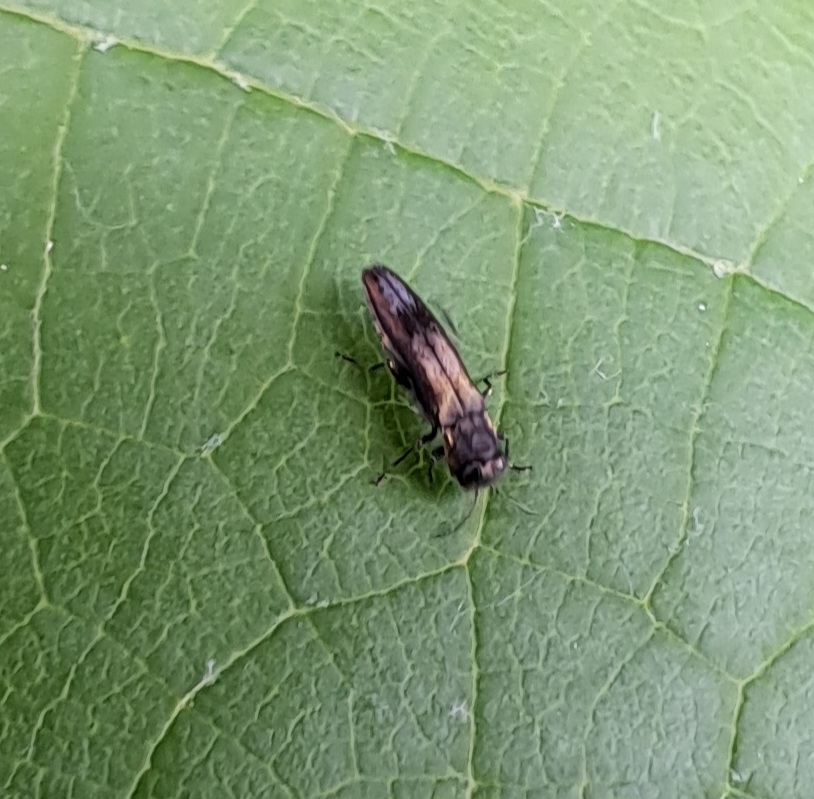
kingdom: Animalia
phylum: Arthropoda
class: Insecta
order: Coleoptera
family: Buprestidae
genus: Agrilus
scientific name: Agrilus derasofasciatus
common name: Metallic wood-boring beetle
